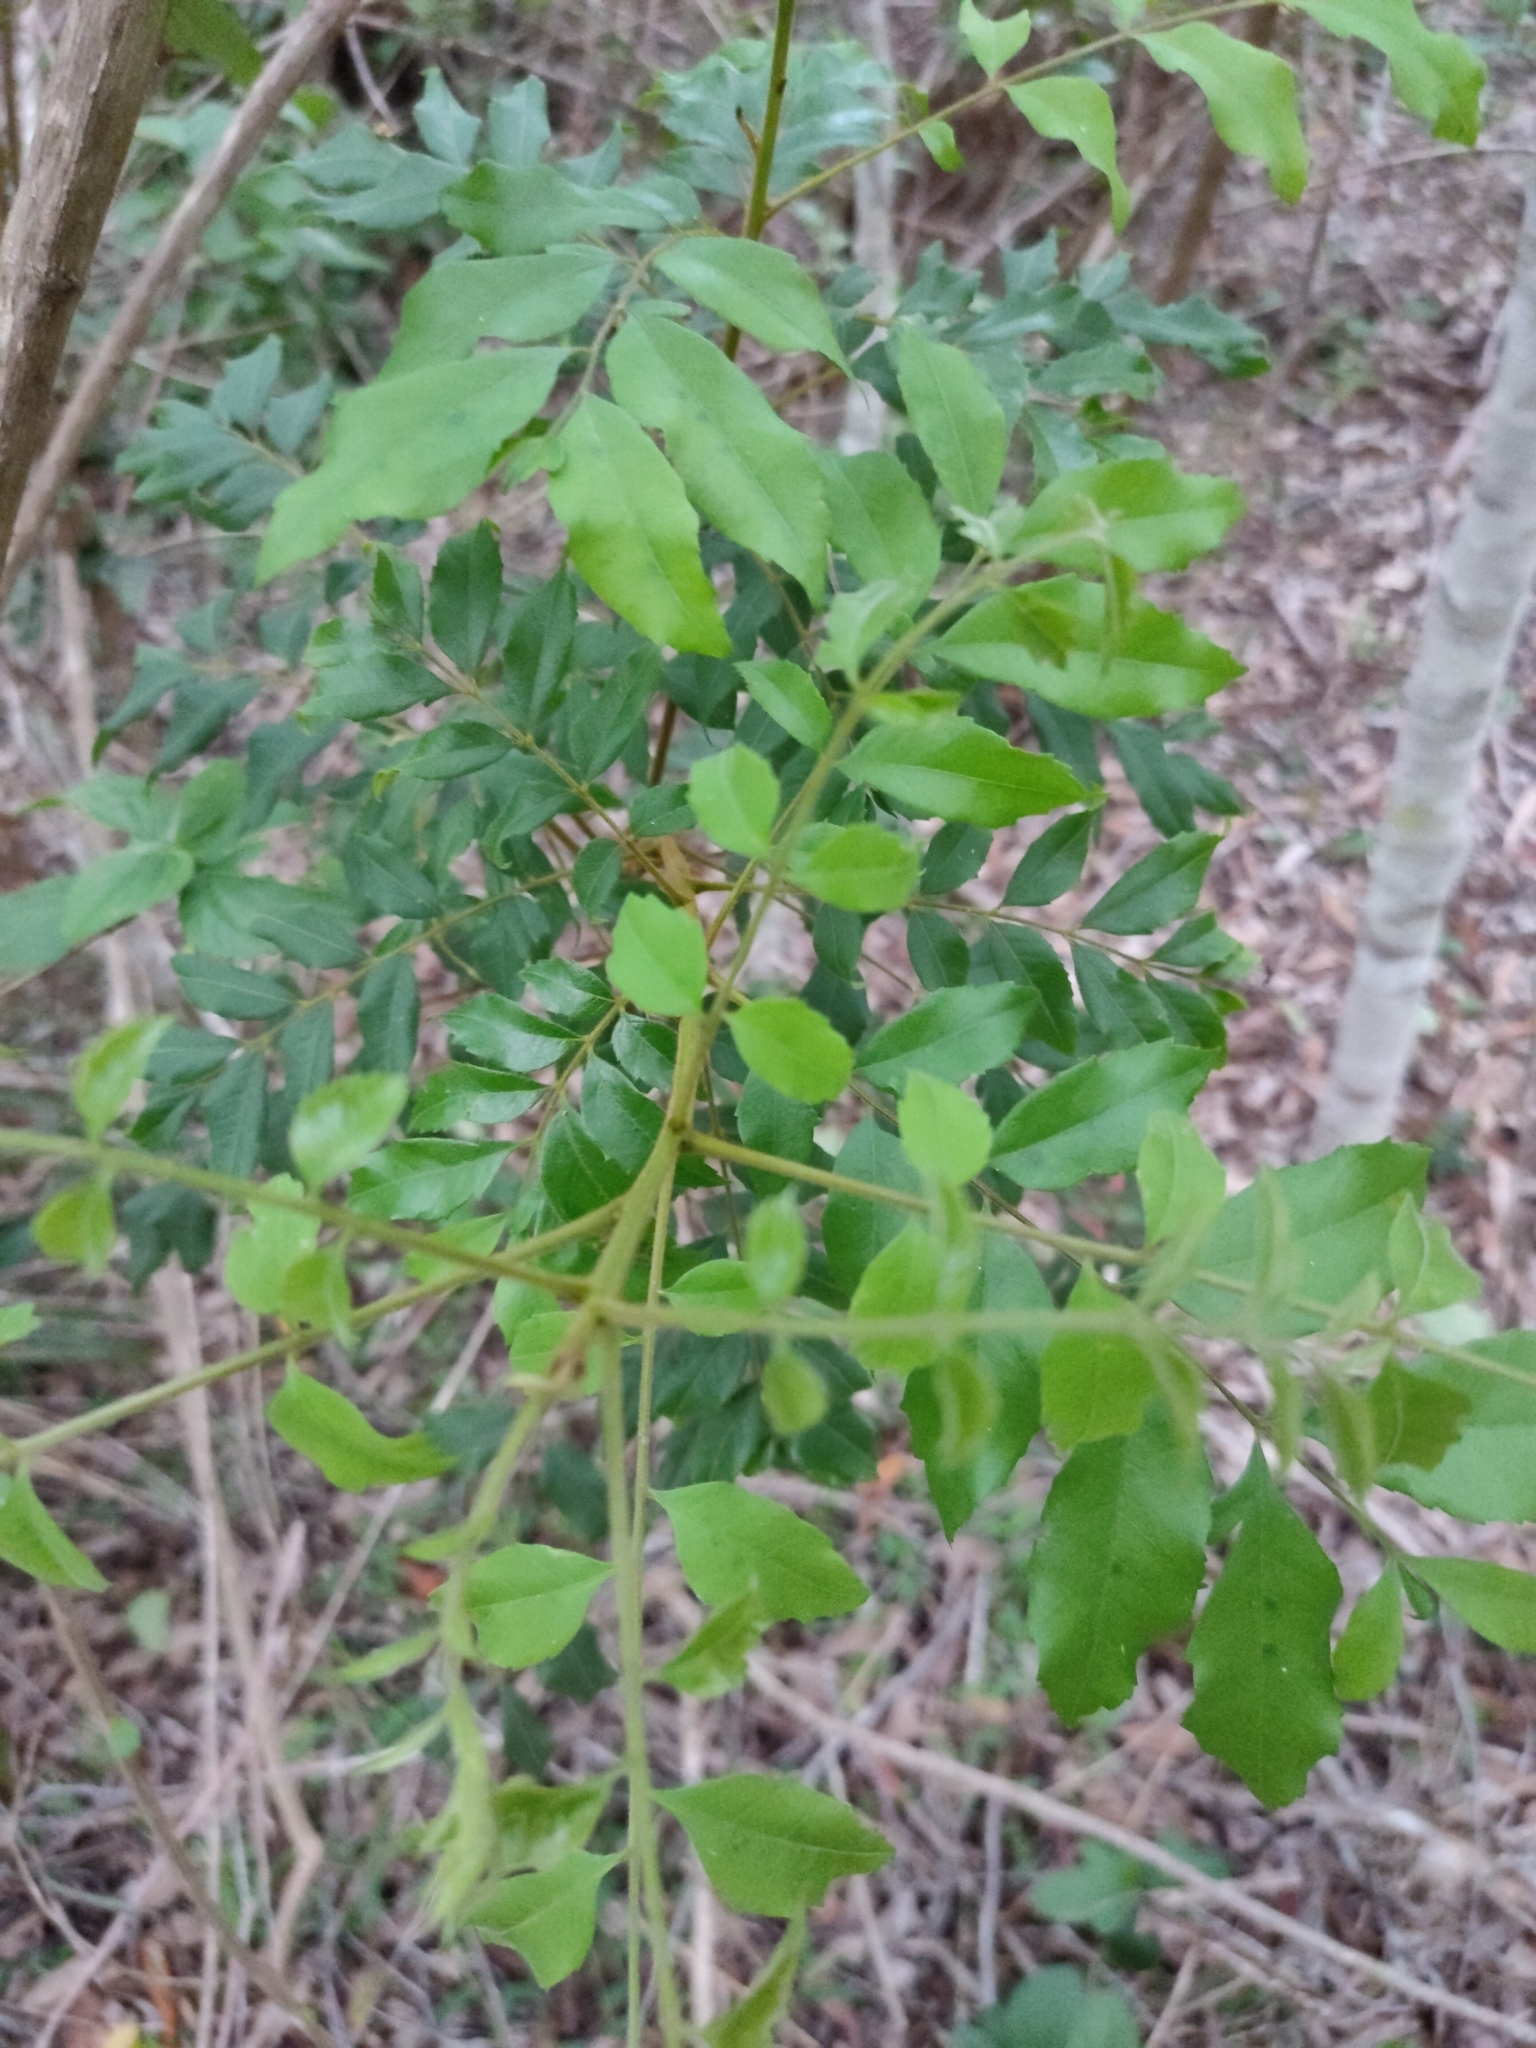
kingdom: Plantae
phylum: Tracheophyta
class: Magnoliopsida
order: Sapindales
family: Sapindaceae
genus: Jagera
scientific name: Jagera pseudorhus
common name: Fern-leaf-tamarind
